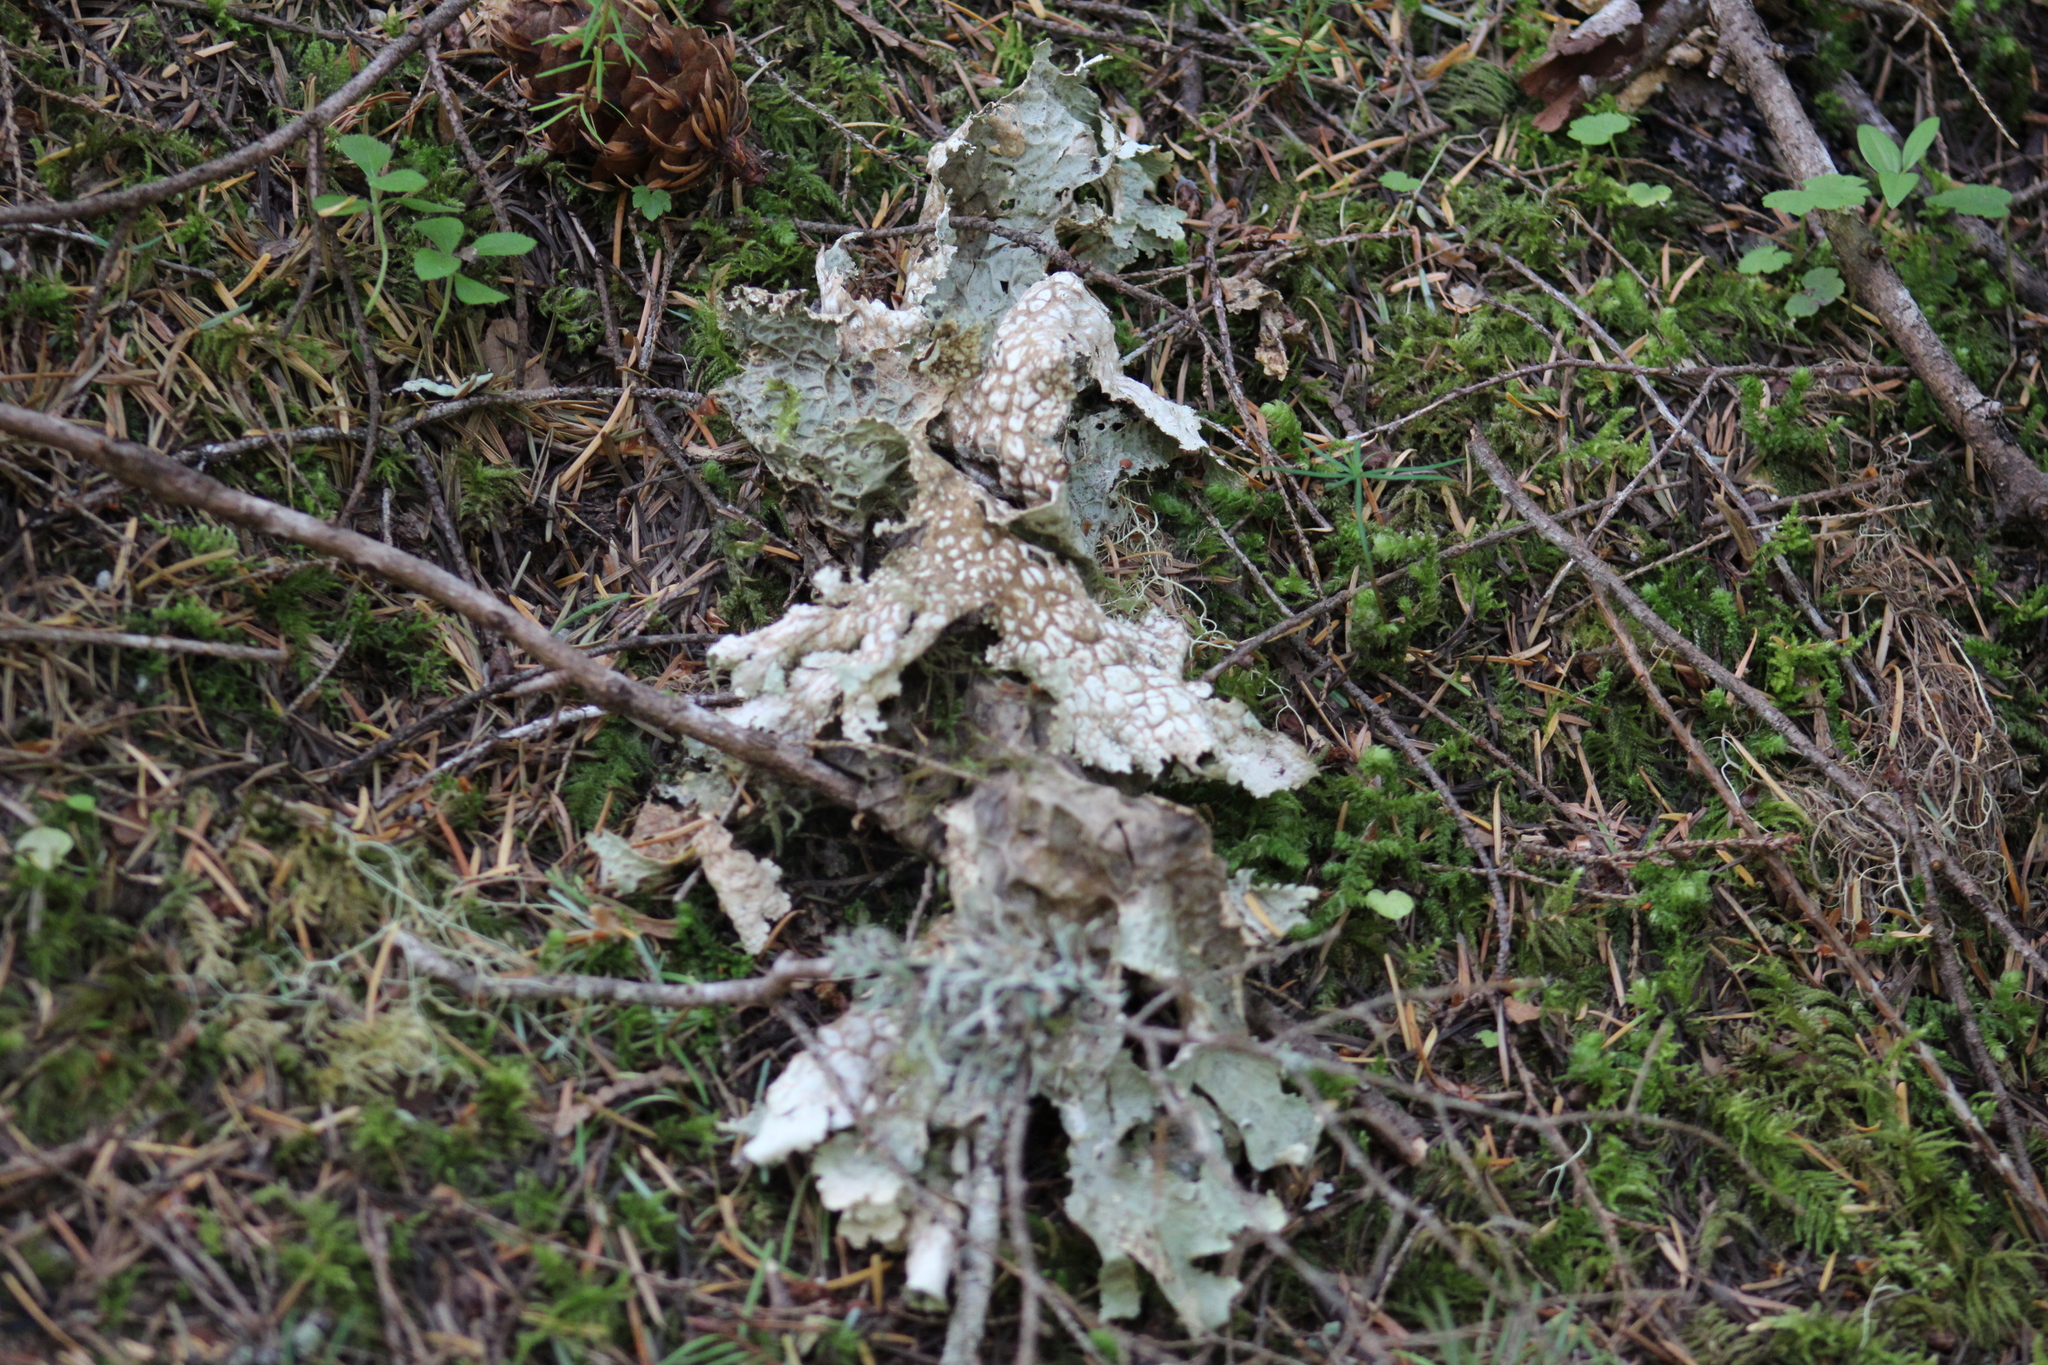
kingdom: Fungi
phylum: Ascomycota
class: Lecanoromycetes
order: Peltigerales
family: Lobariaceae
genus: Lobaria
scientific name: Lobaria oregana
